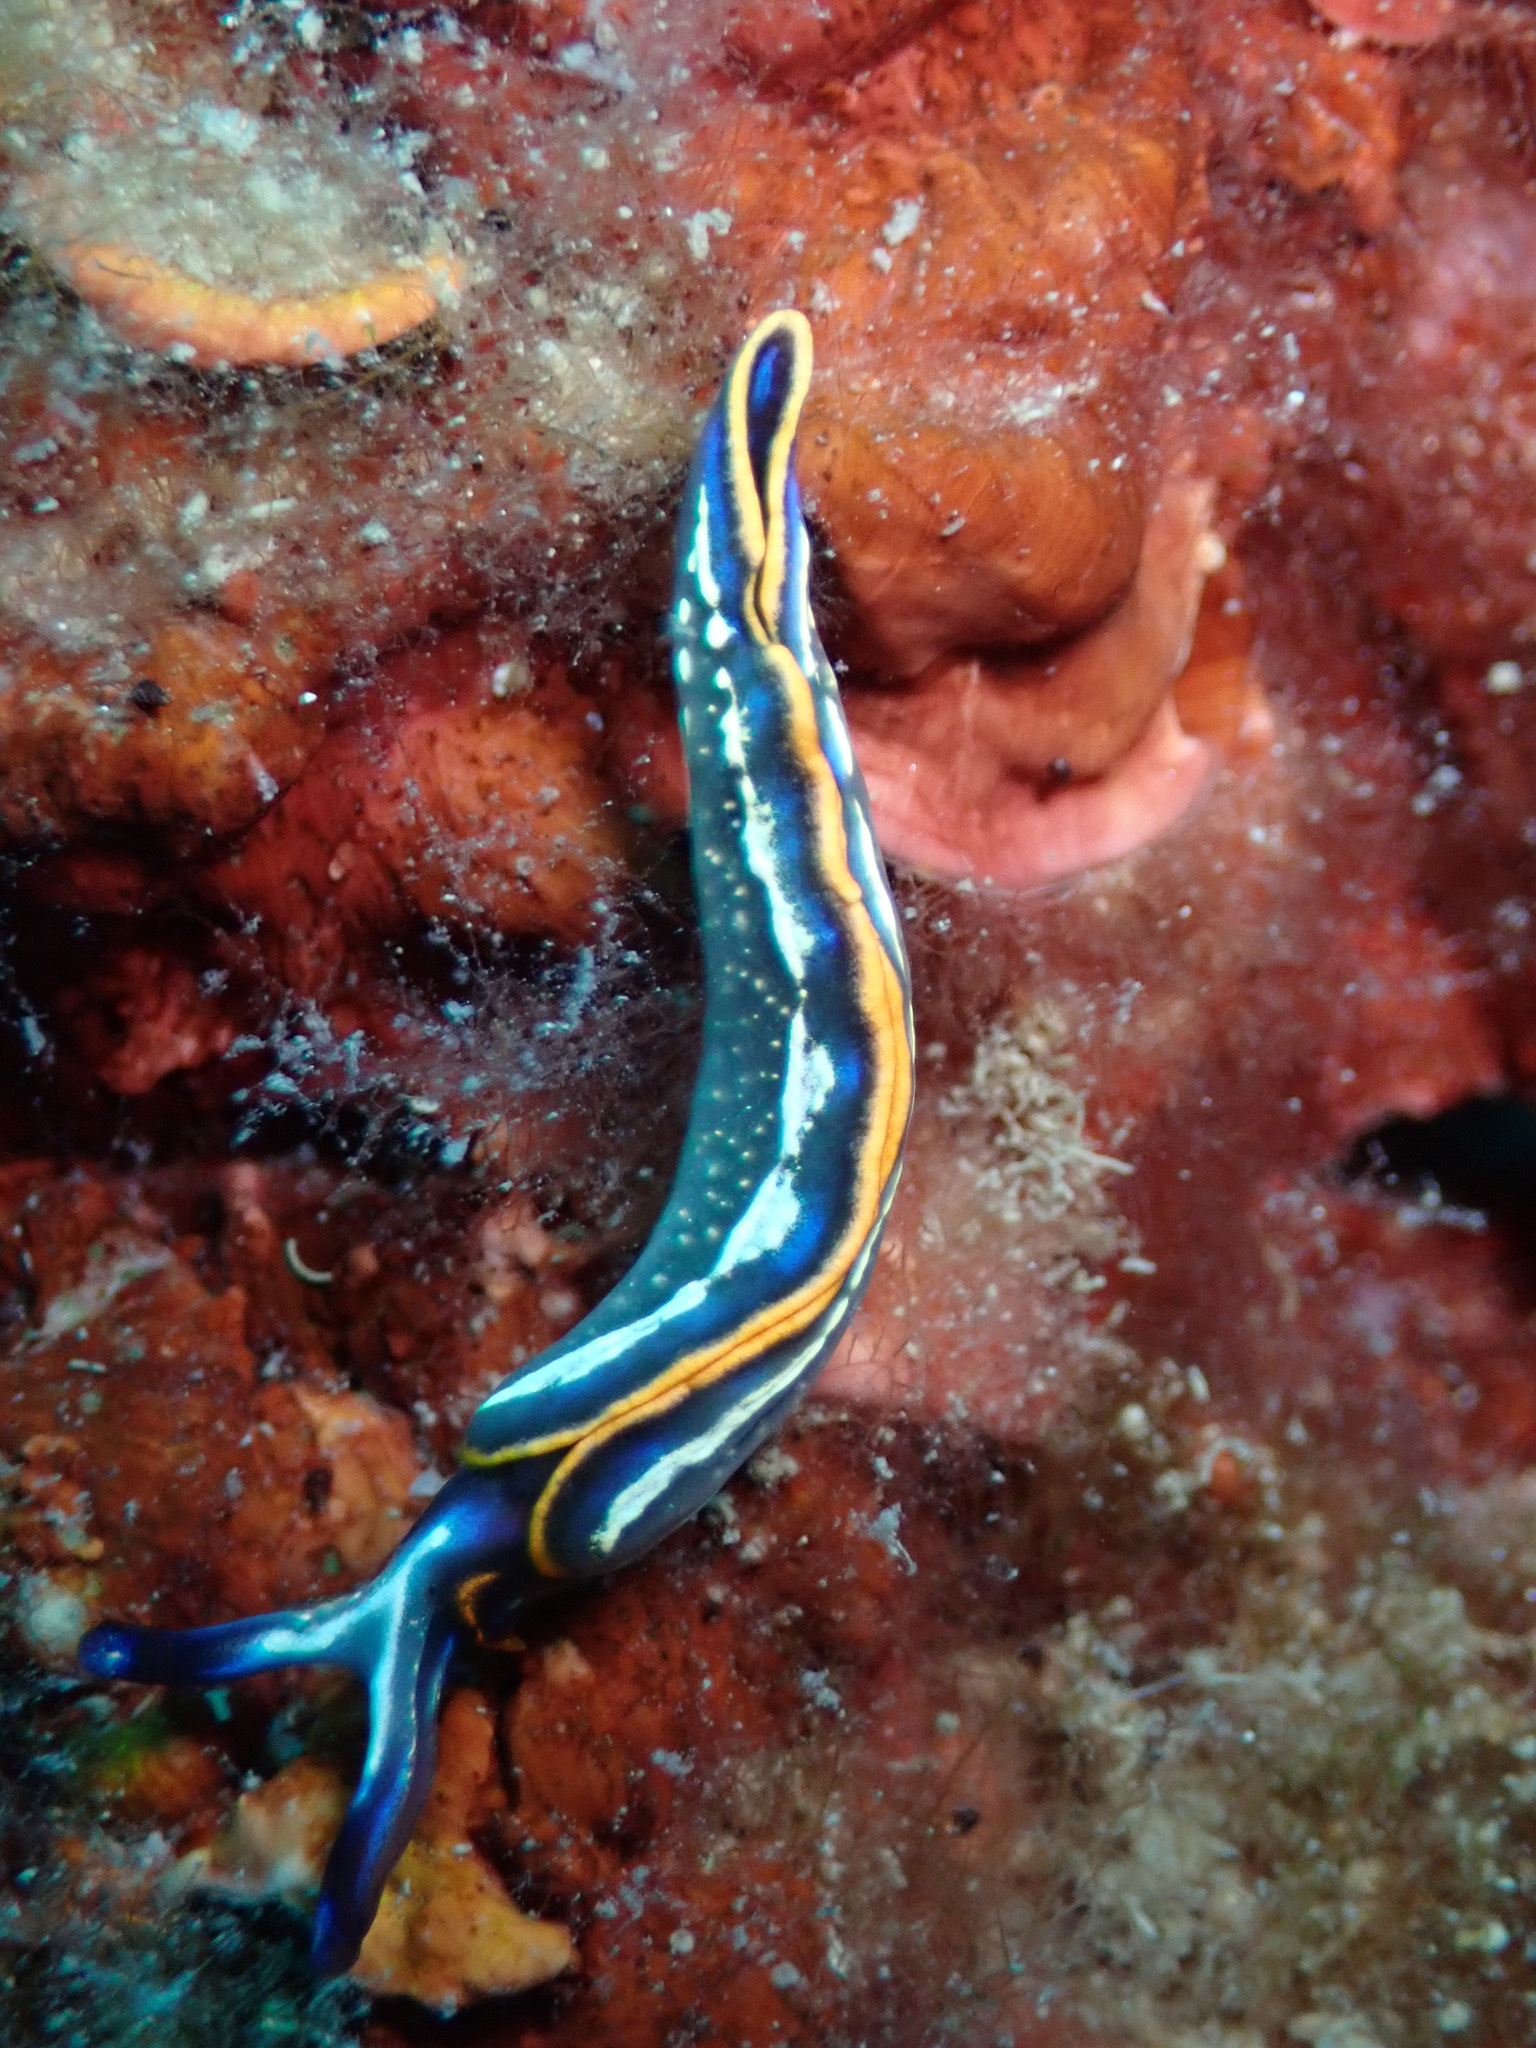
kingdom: Animalia
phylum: Mollusca
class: Gastropoda
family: Plakobranchidae
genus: Thuridilla
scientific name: Thuridilla hopei
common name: Splendid elysia
